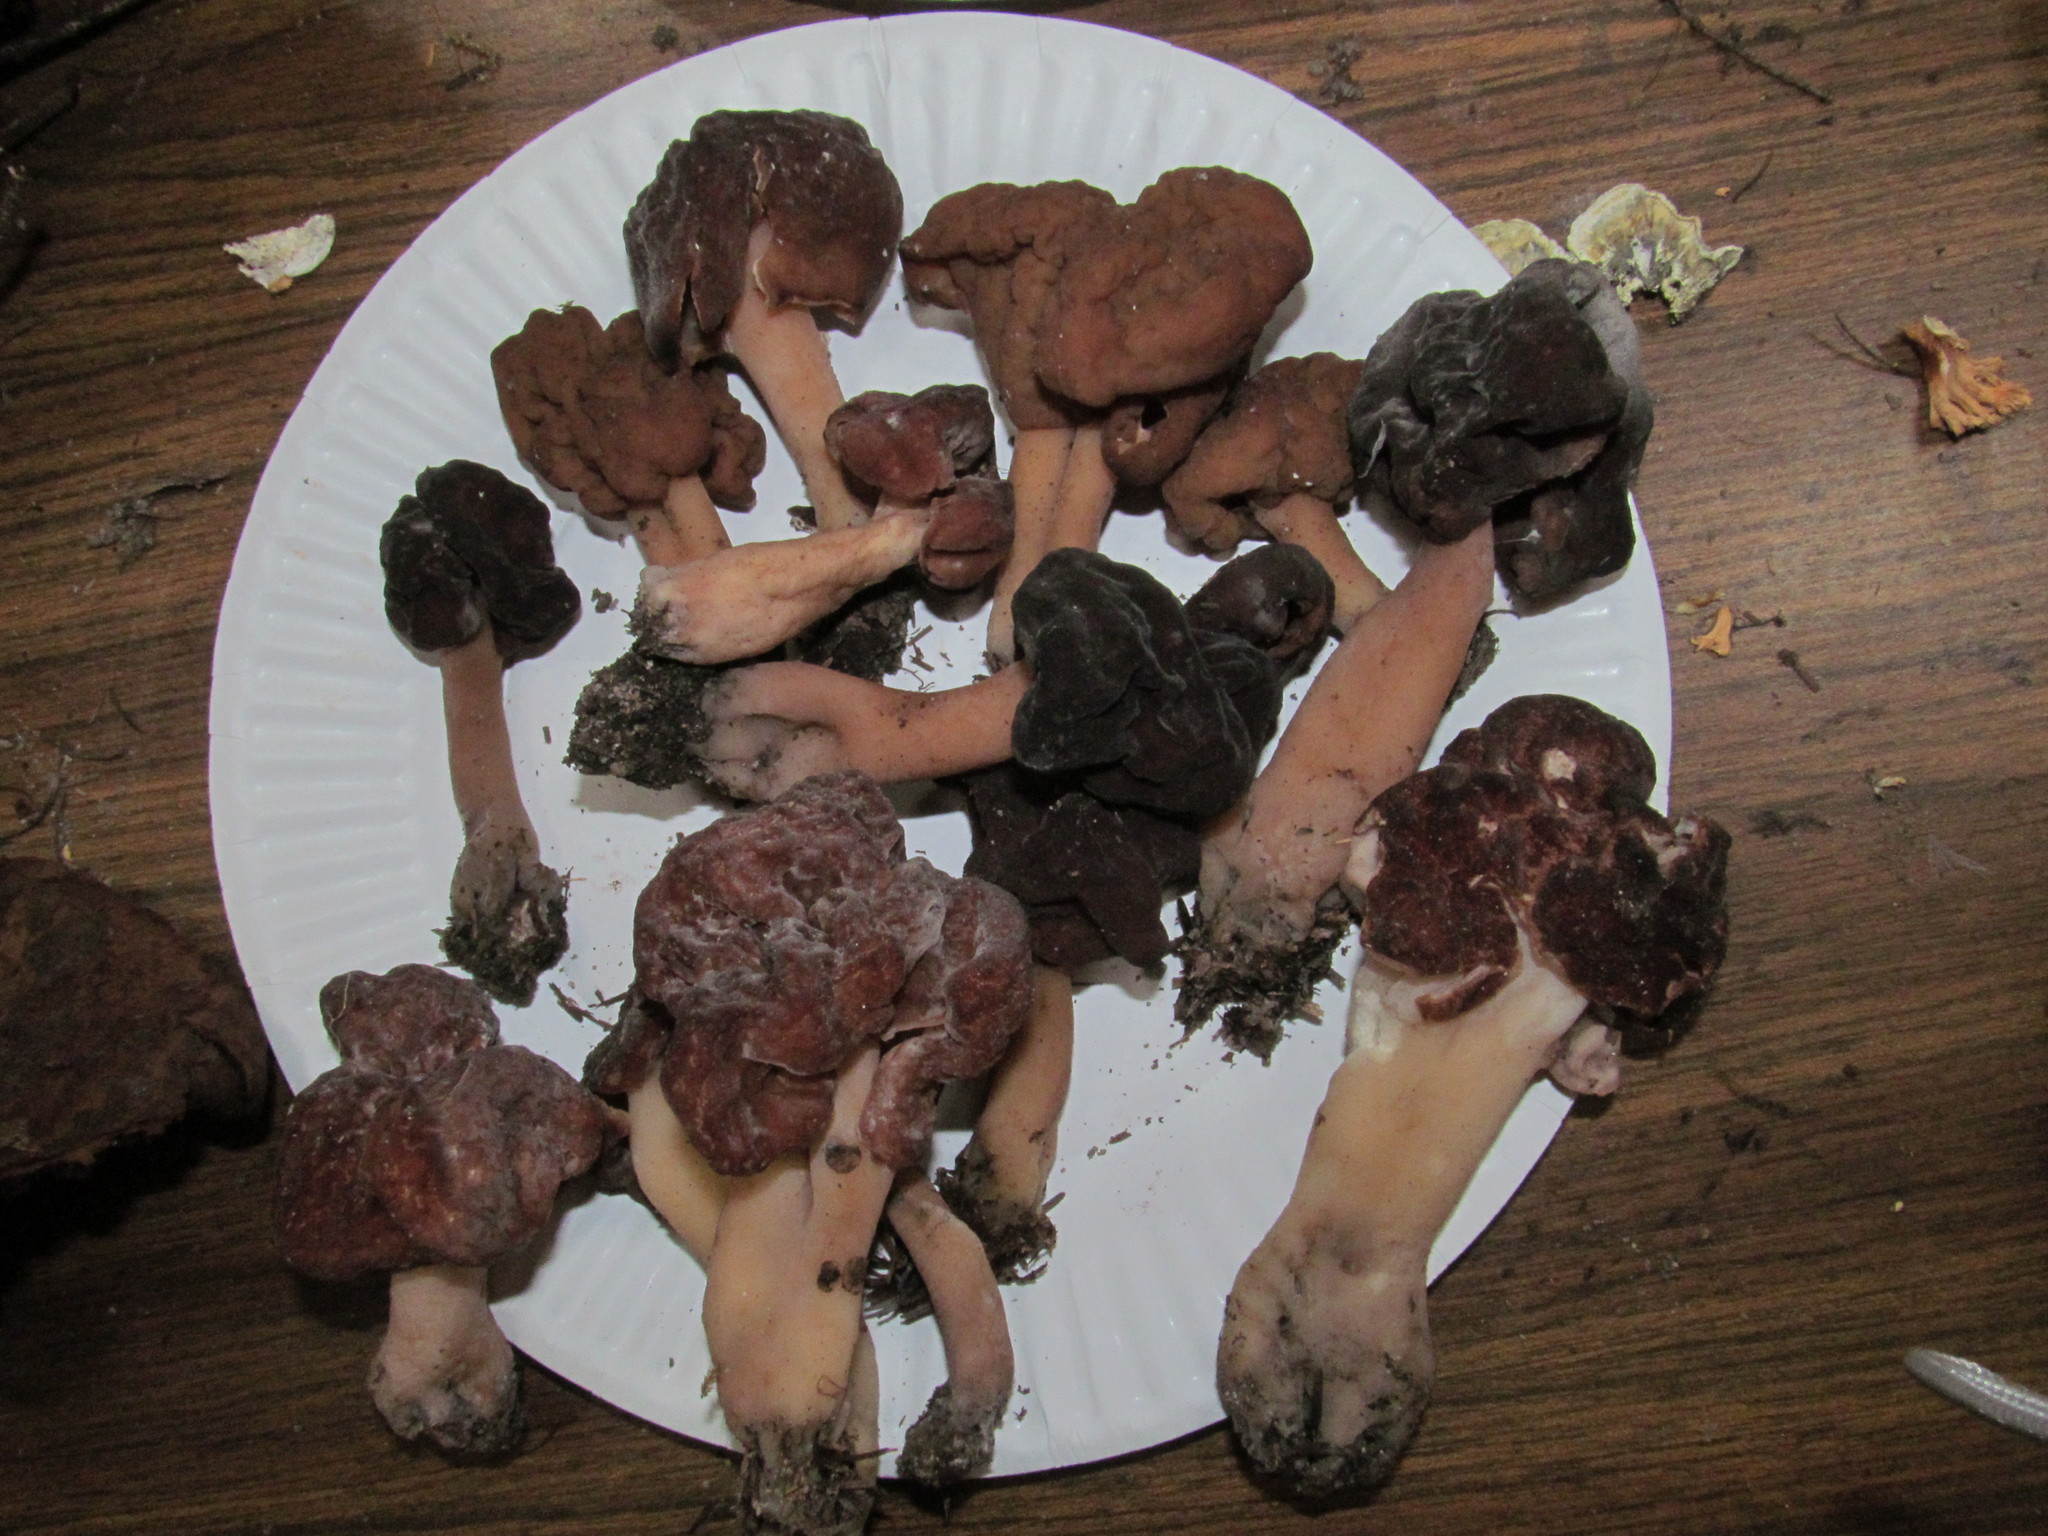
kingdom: Fungi
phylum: Ascomycota
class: Pezizomycetes
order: Pezizales
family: Discinaceae
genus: Gyromitra
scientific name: Gyromitra esculenta
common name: False morel
